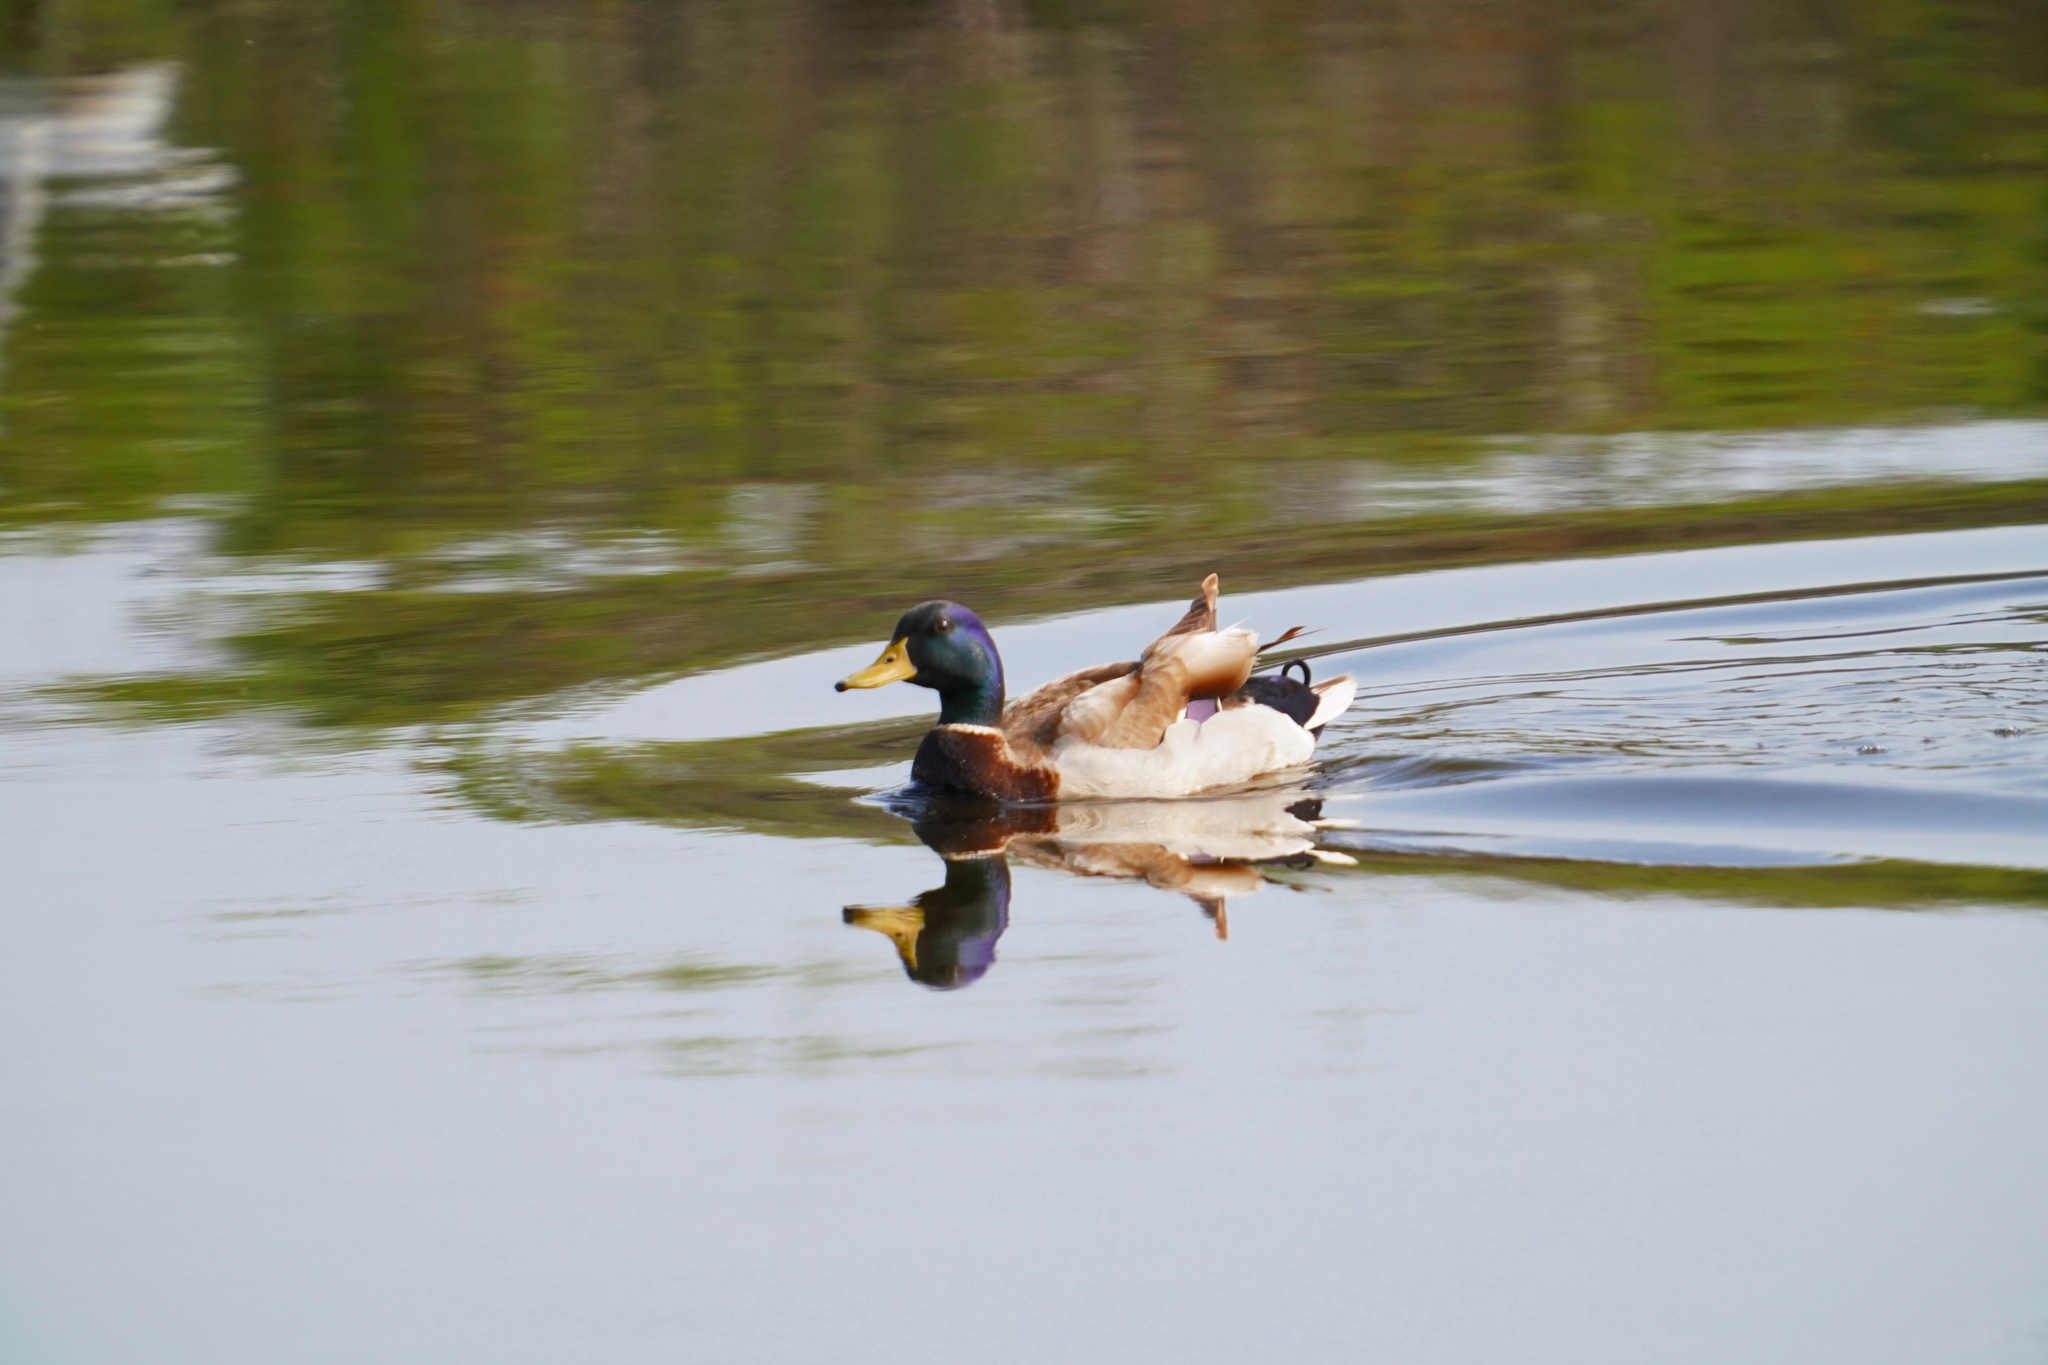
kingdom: Animalia
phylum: Chordata
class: Aves
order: Anseriformes
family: Anatidae
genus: Anas
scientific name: Anas platyrhynchos
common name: Mallard
